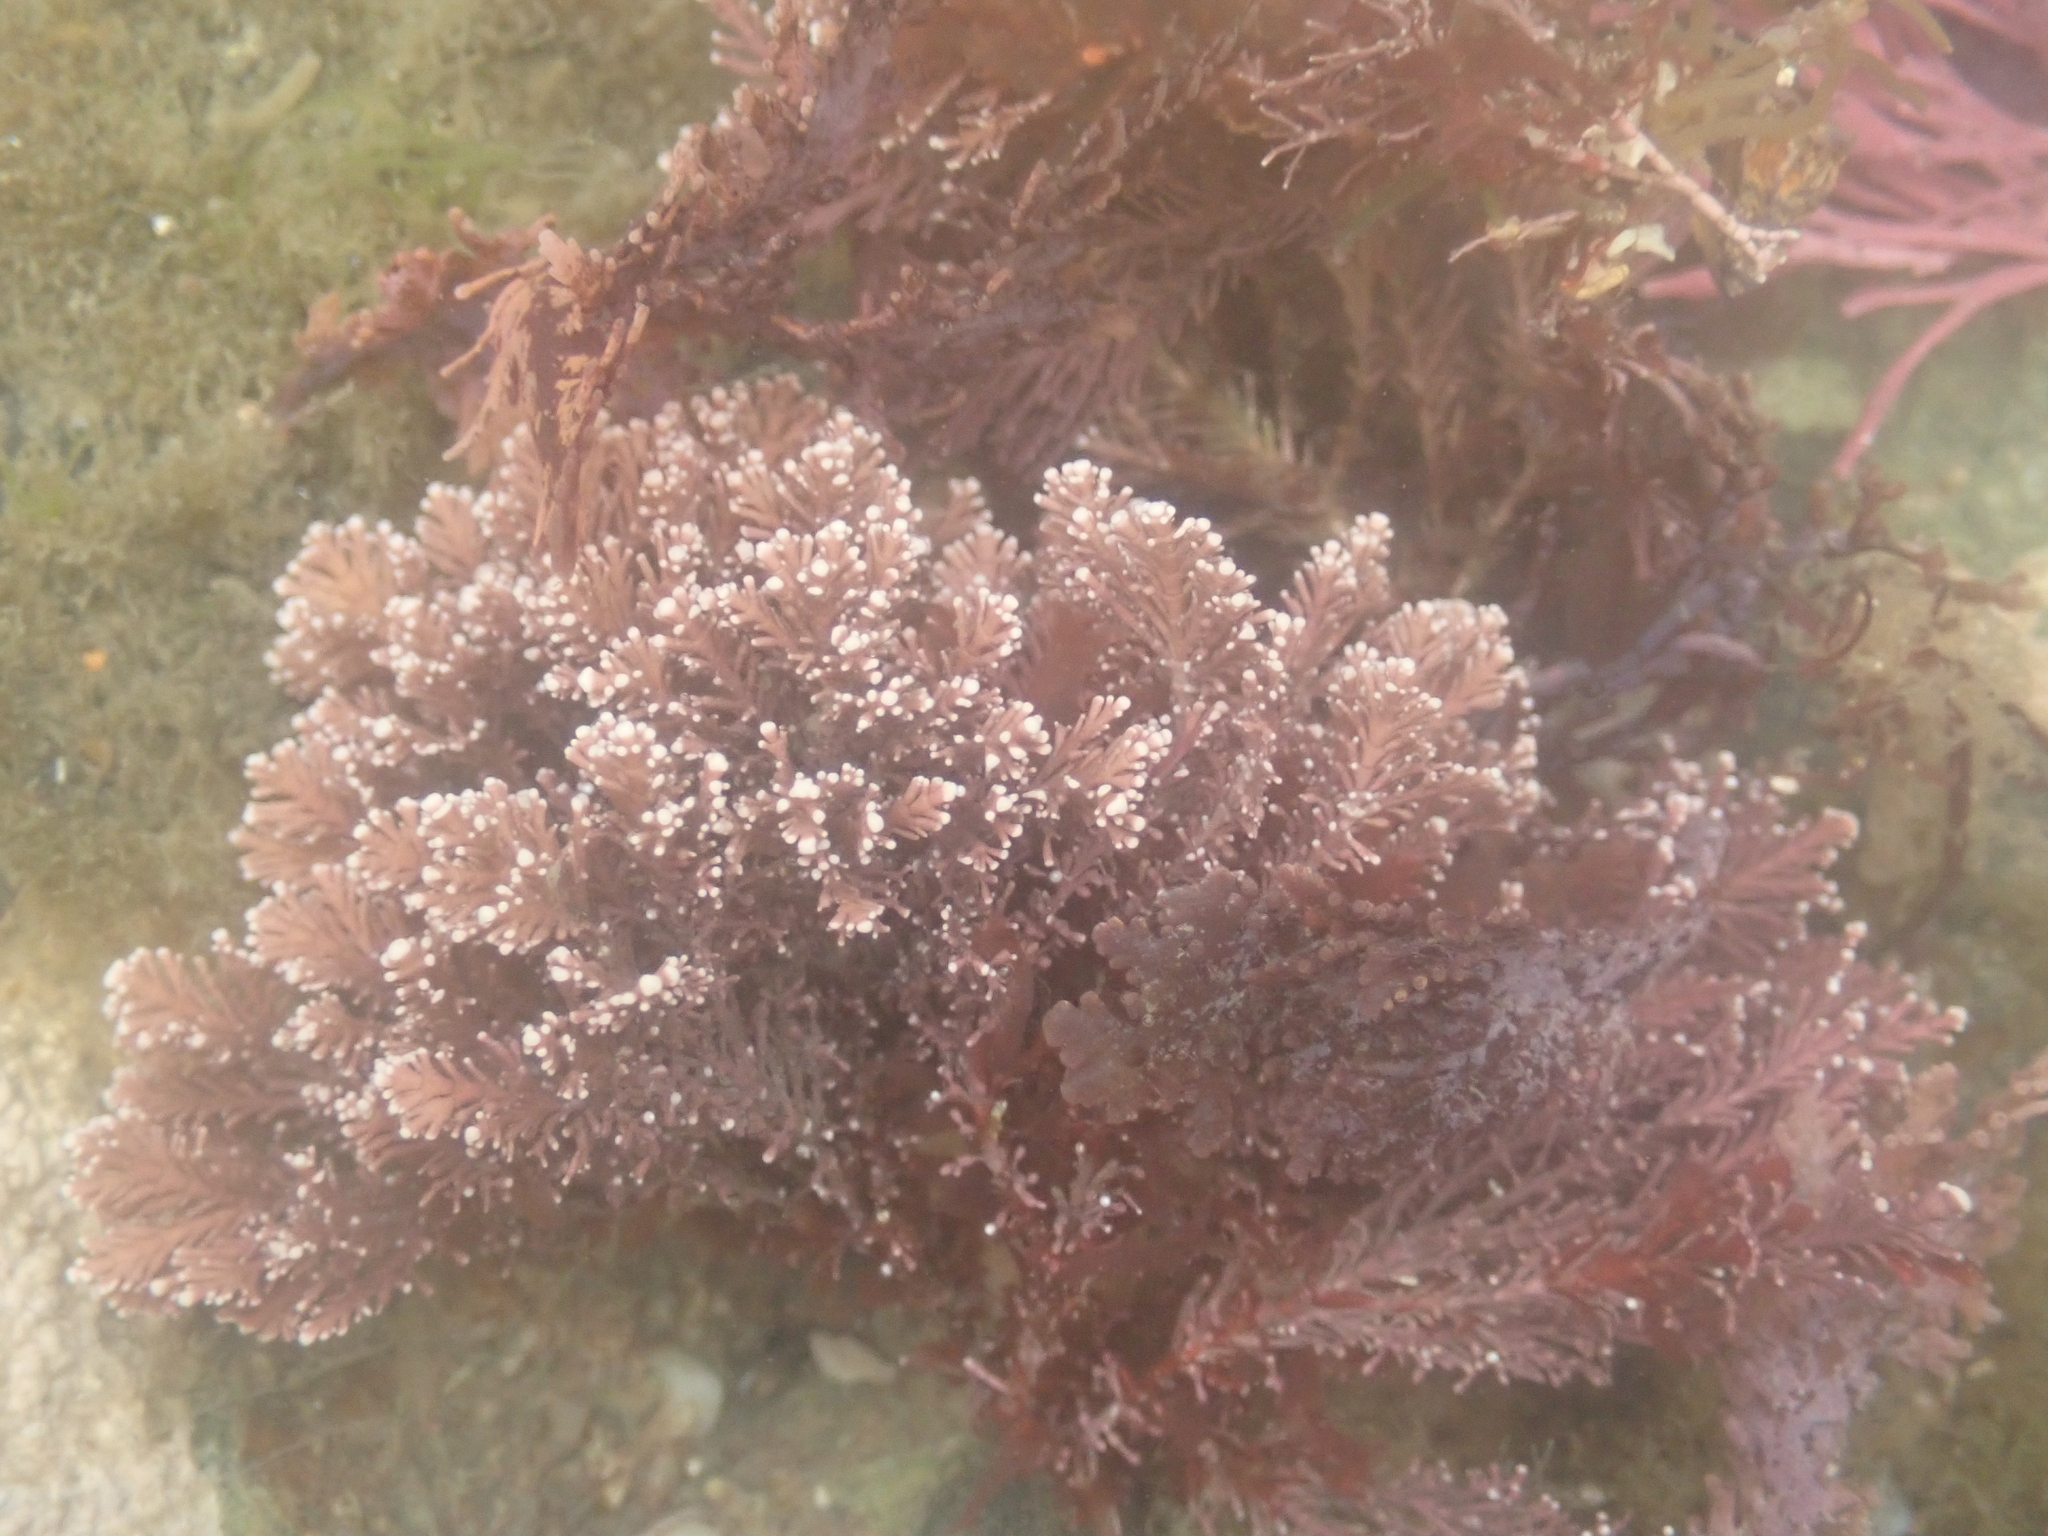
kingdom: Plantae
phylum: Rhodophyta
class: Florideophyceae
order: Corallinales
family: Corallinaceae
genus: Corallina
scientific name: Corallina officinalis
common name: Coral weed
